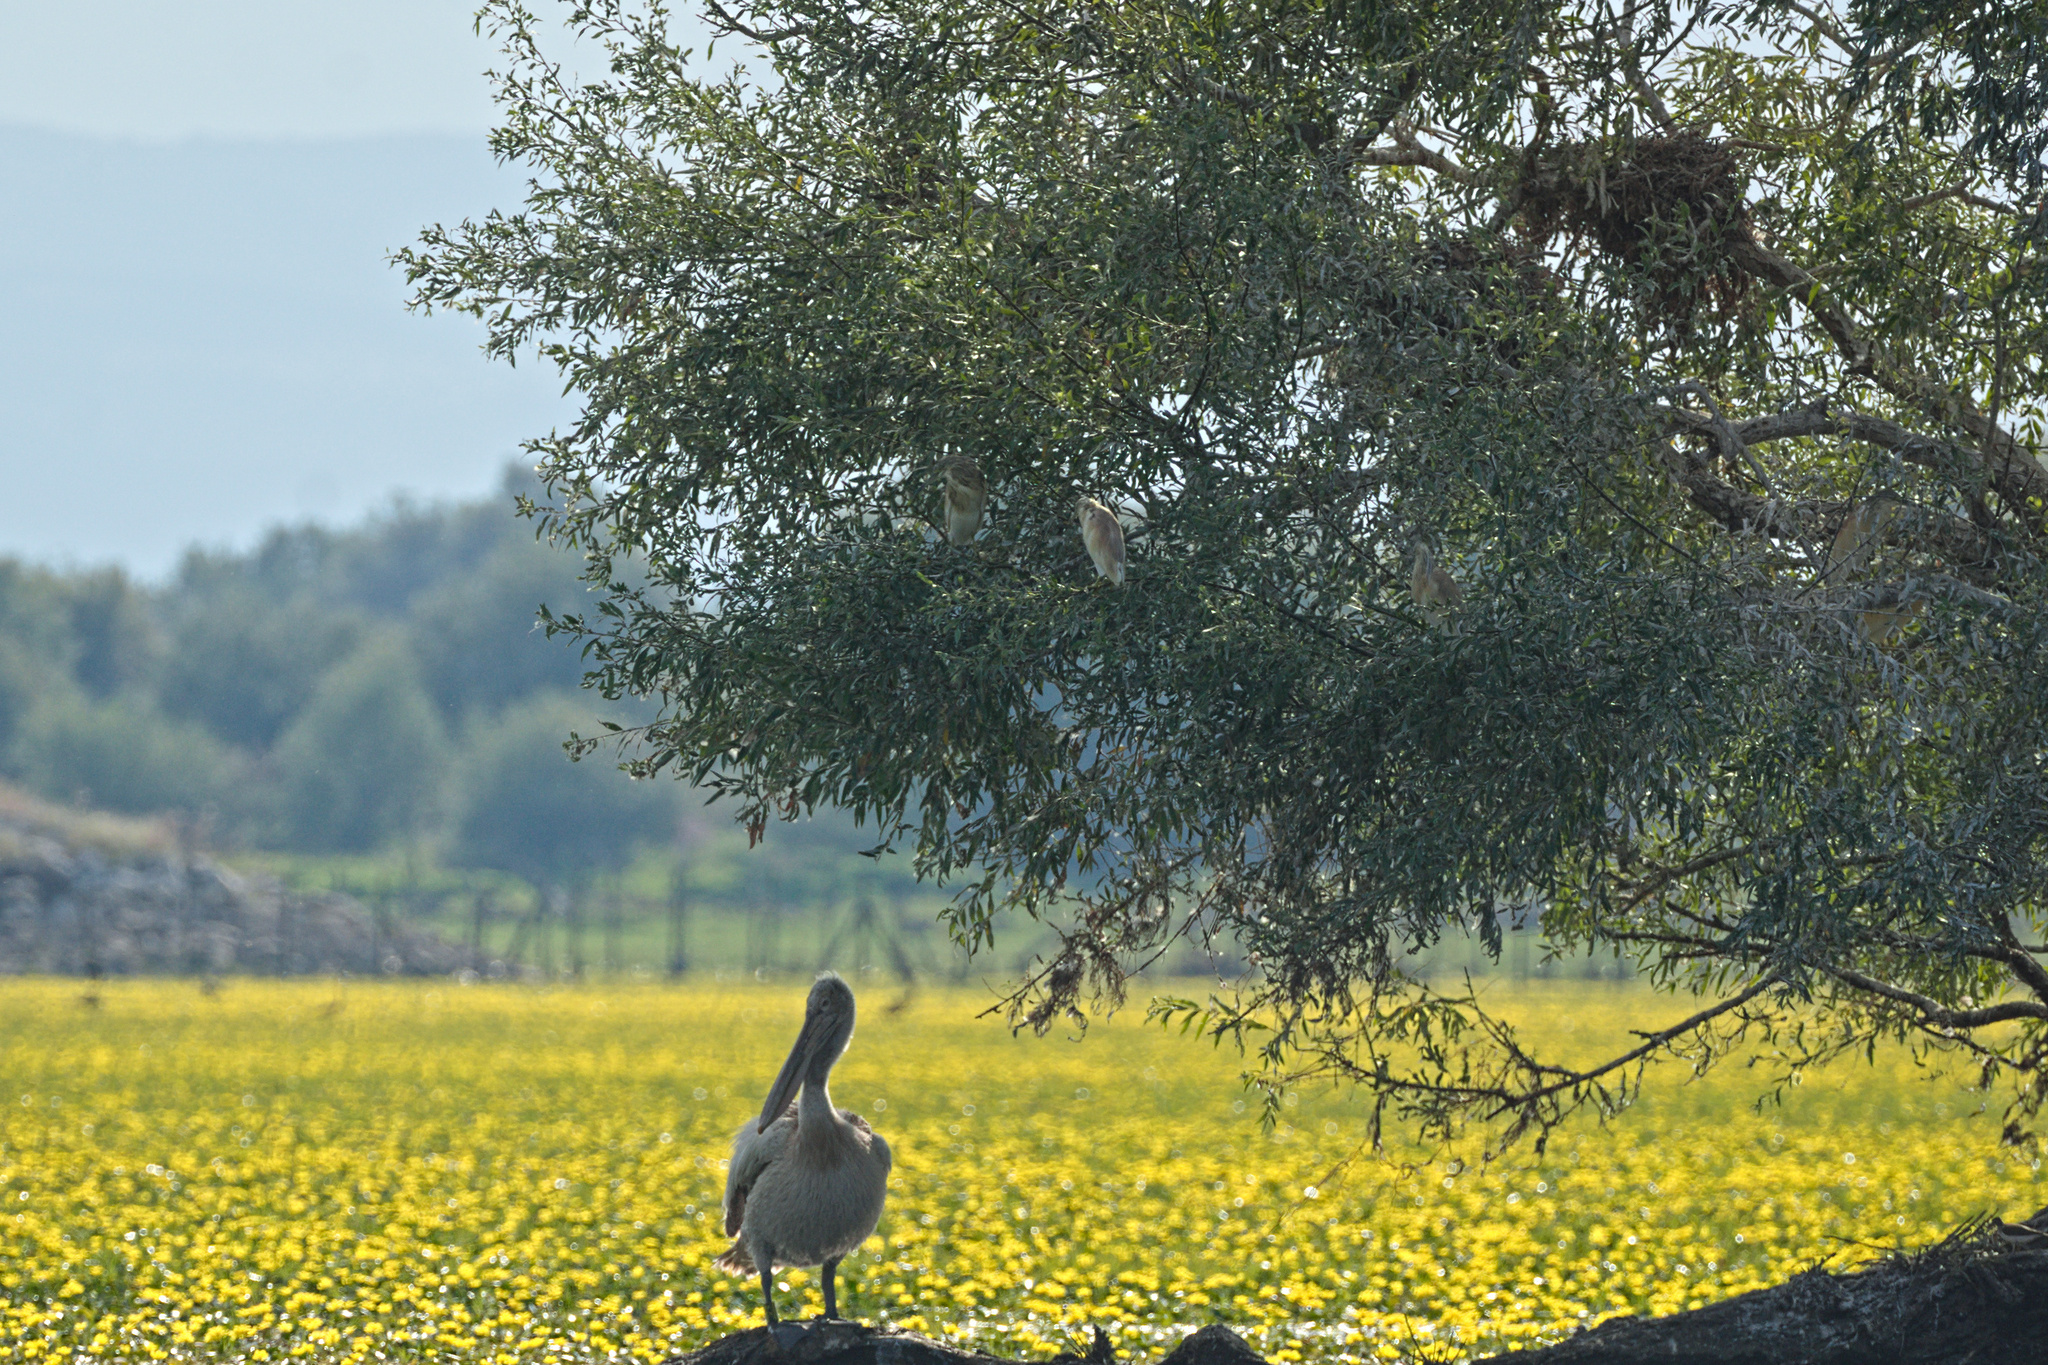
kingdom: Animalia
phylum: Chordata
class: Aves
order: Pelecaniformes
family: Ardeidae
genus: Ardeola
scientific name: Ardeola ralloides
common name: Squacco heron
